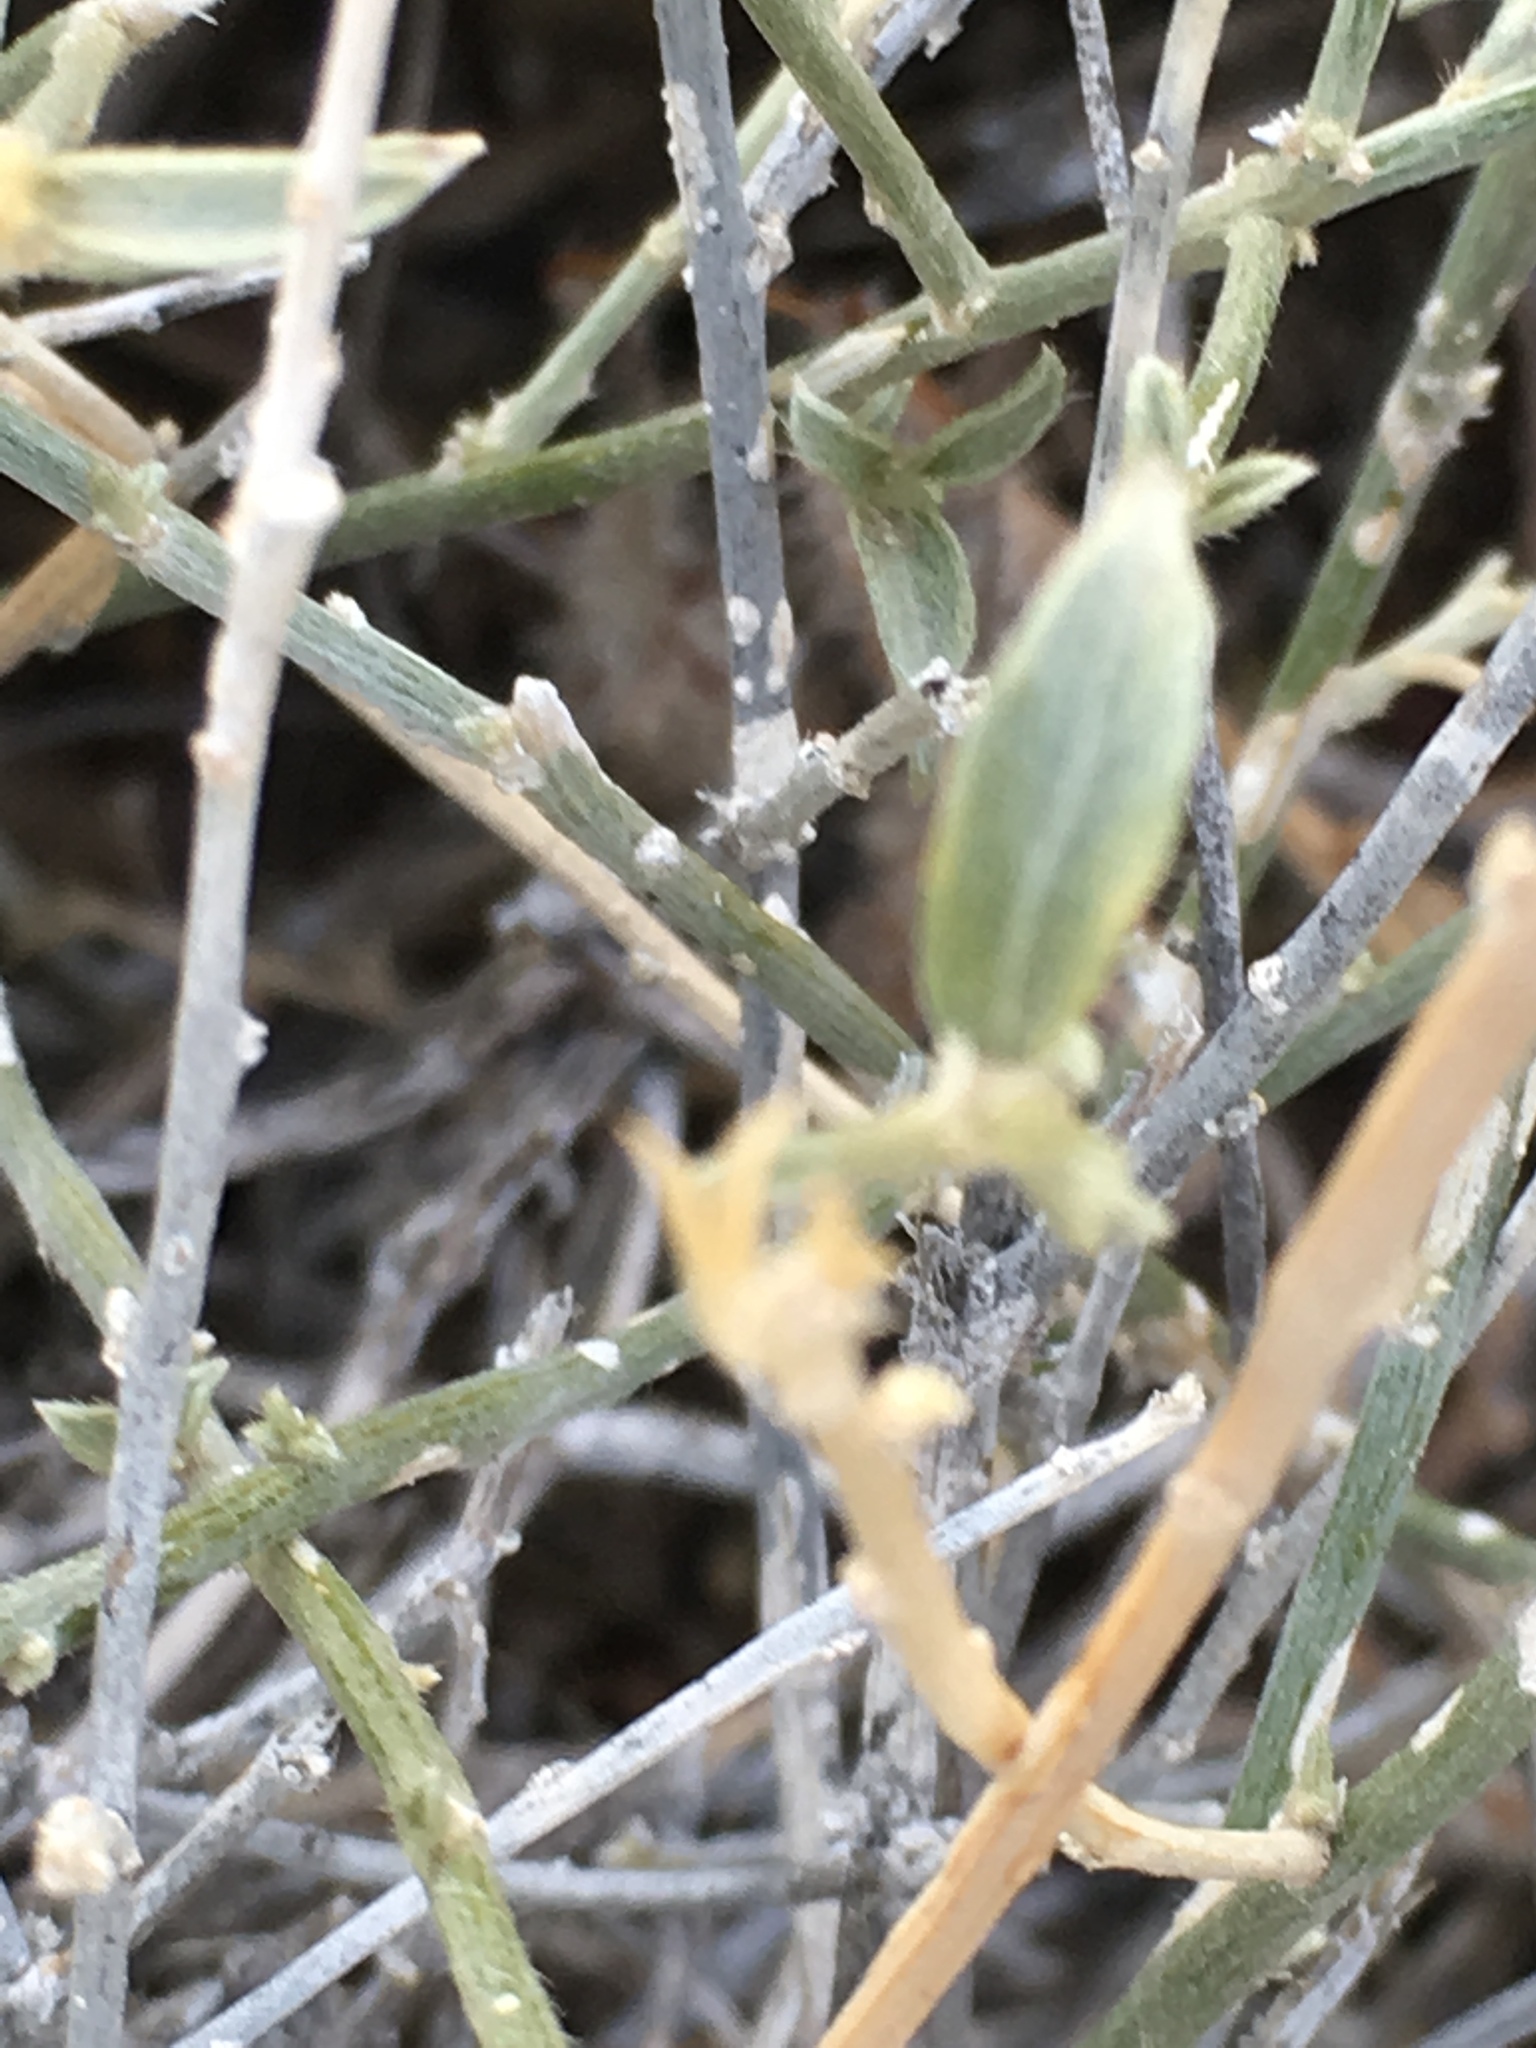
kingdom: Plantae
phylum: Tracheophyta
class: Magnoliopsida
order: Malpighiales
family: Euphorbiaceae
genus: Ditaxis
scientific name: Ditaxis lanceolata
